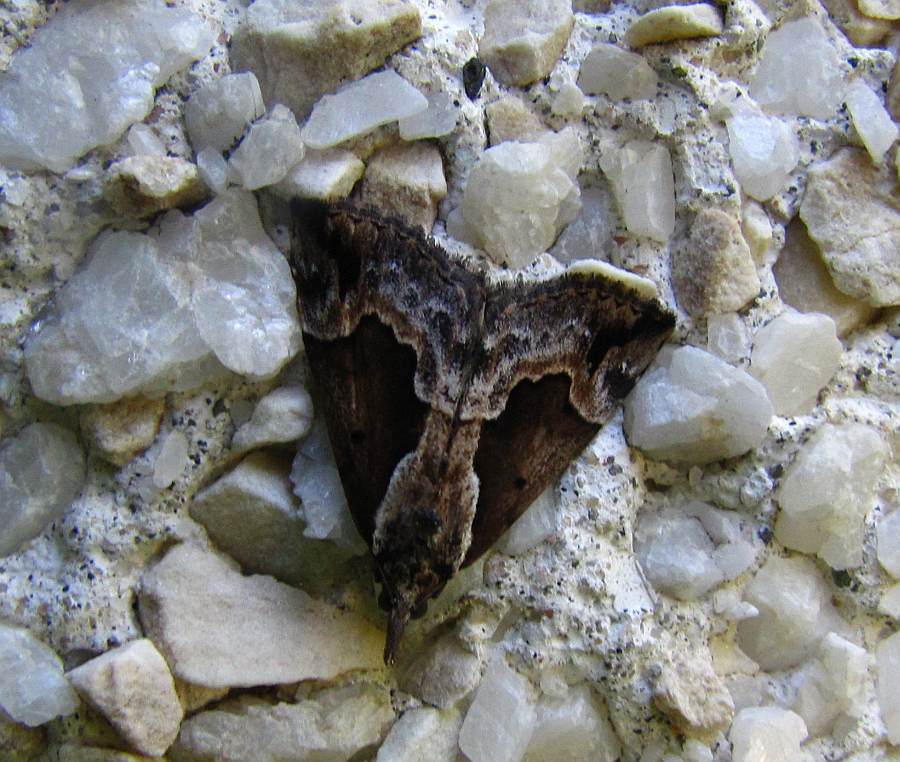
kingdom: Animalia
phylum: Arthropoda
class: Insecta
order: Lepidoptera
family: Erebidae
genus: Hypena
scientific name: Hypena baltimoralis
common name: Baltimore snout
